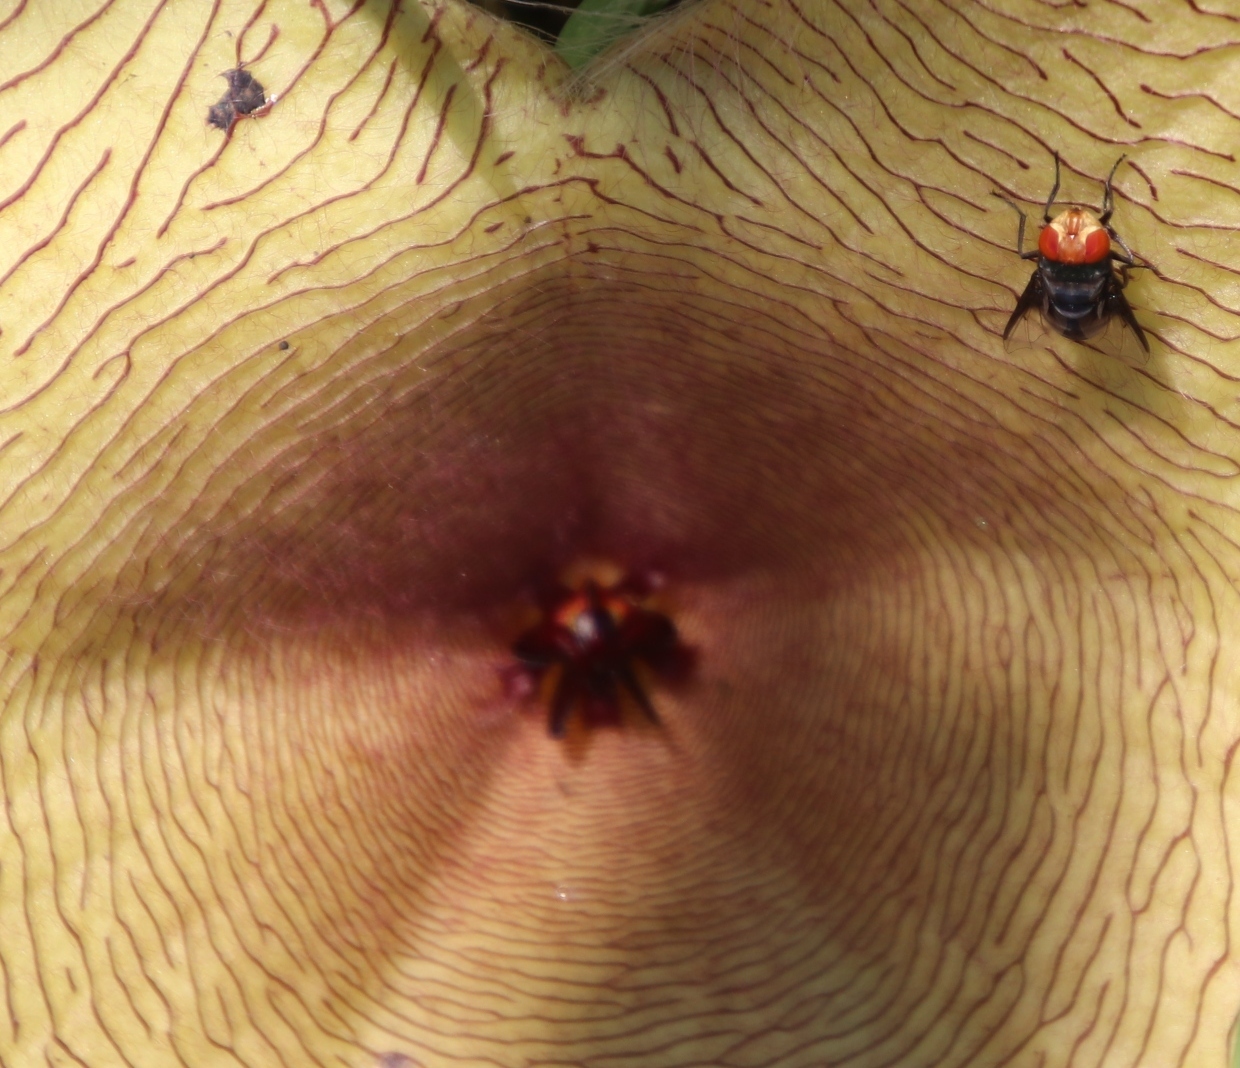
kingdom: Animalia
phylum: Arthropoda
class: Insecta
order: Diptera
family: Calliphoridae
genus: Chrysomya
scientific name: Chrysomya marginalis
